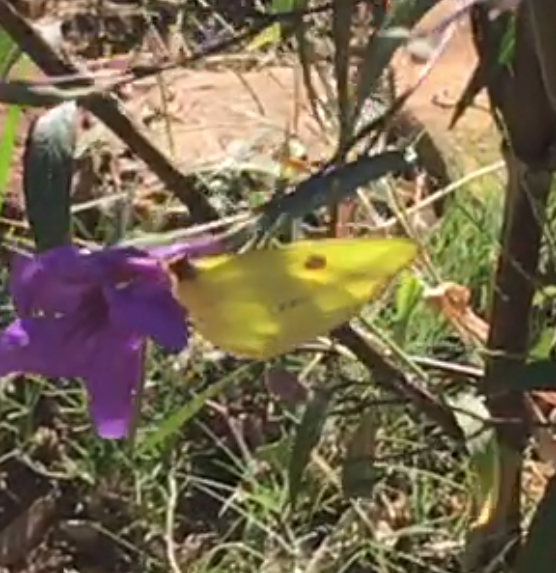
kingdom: Animalia
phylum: Arthropoda
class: Insecta
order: Lepidoptera
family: Pieridae
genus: Phoebis
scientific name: Phoebis sennae
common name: Cloudless sulphur
